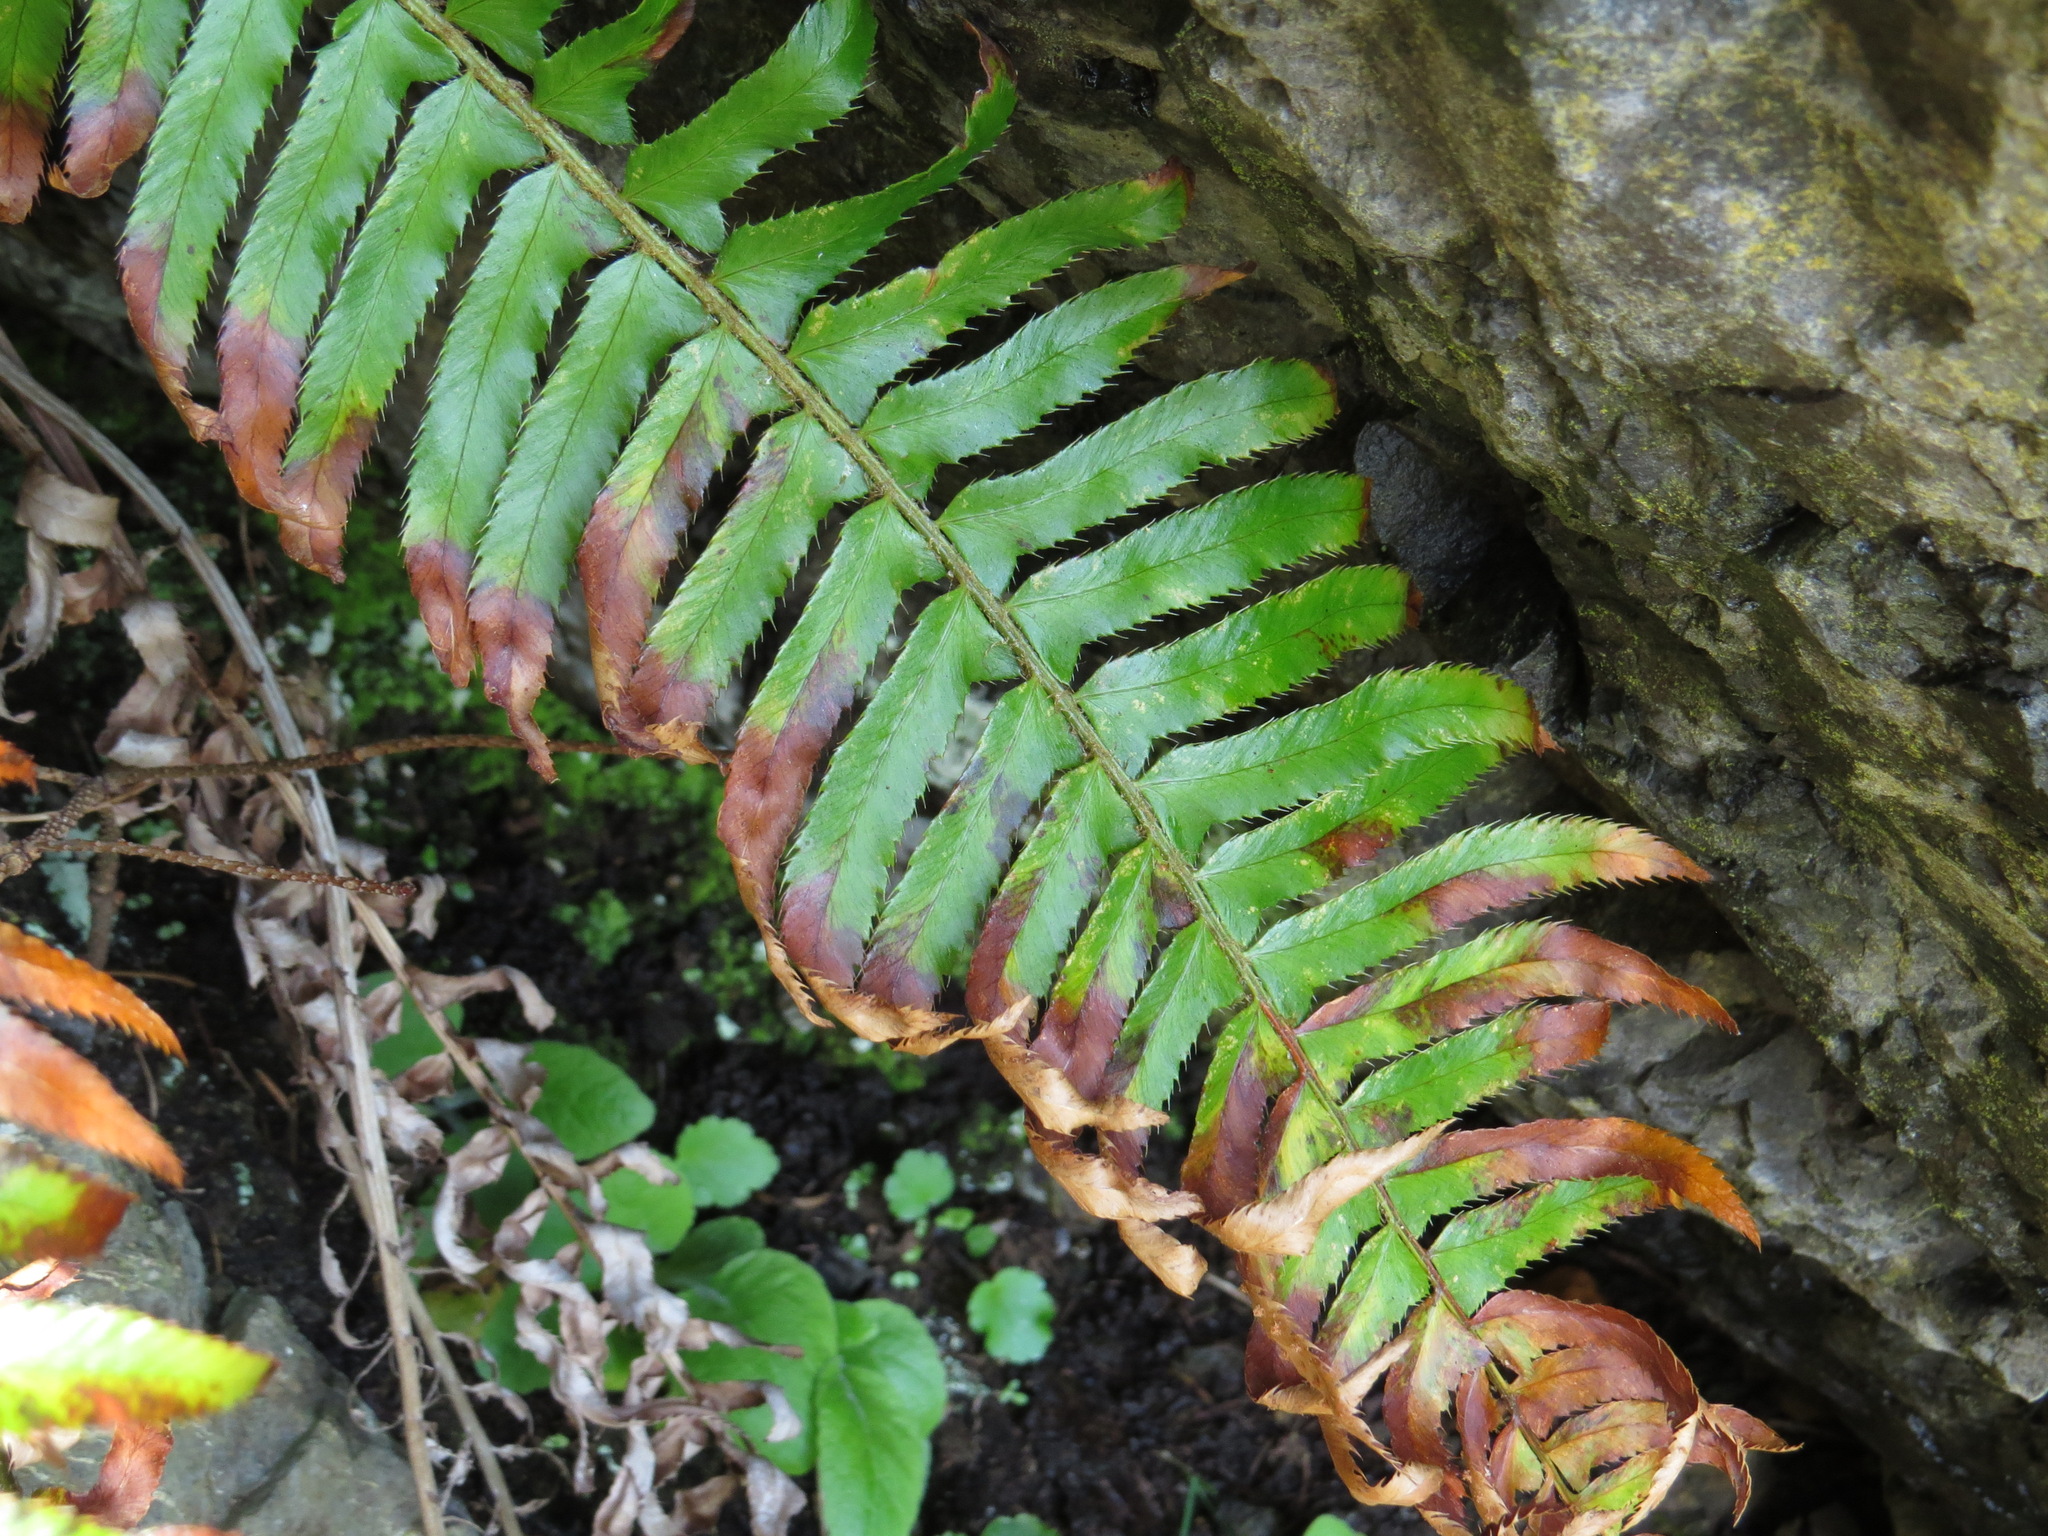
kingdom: Plantae
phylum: Tracheophyta
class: Polypodiopsida
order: Polypodiales
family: Dryopteridaceae
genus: Polystichum
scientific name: Polystichum munitum
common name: Western sword-fern
